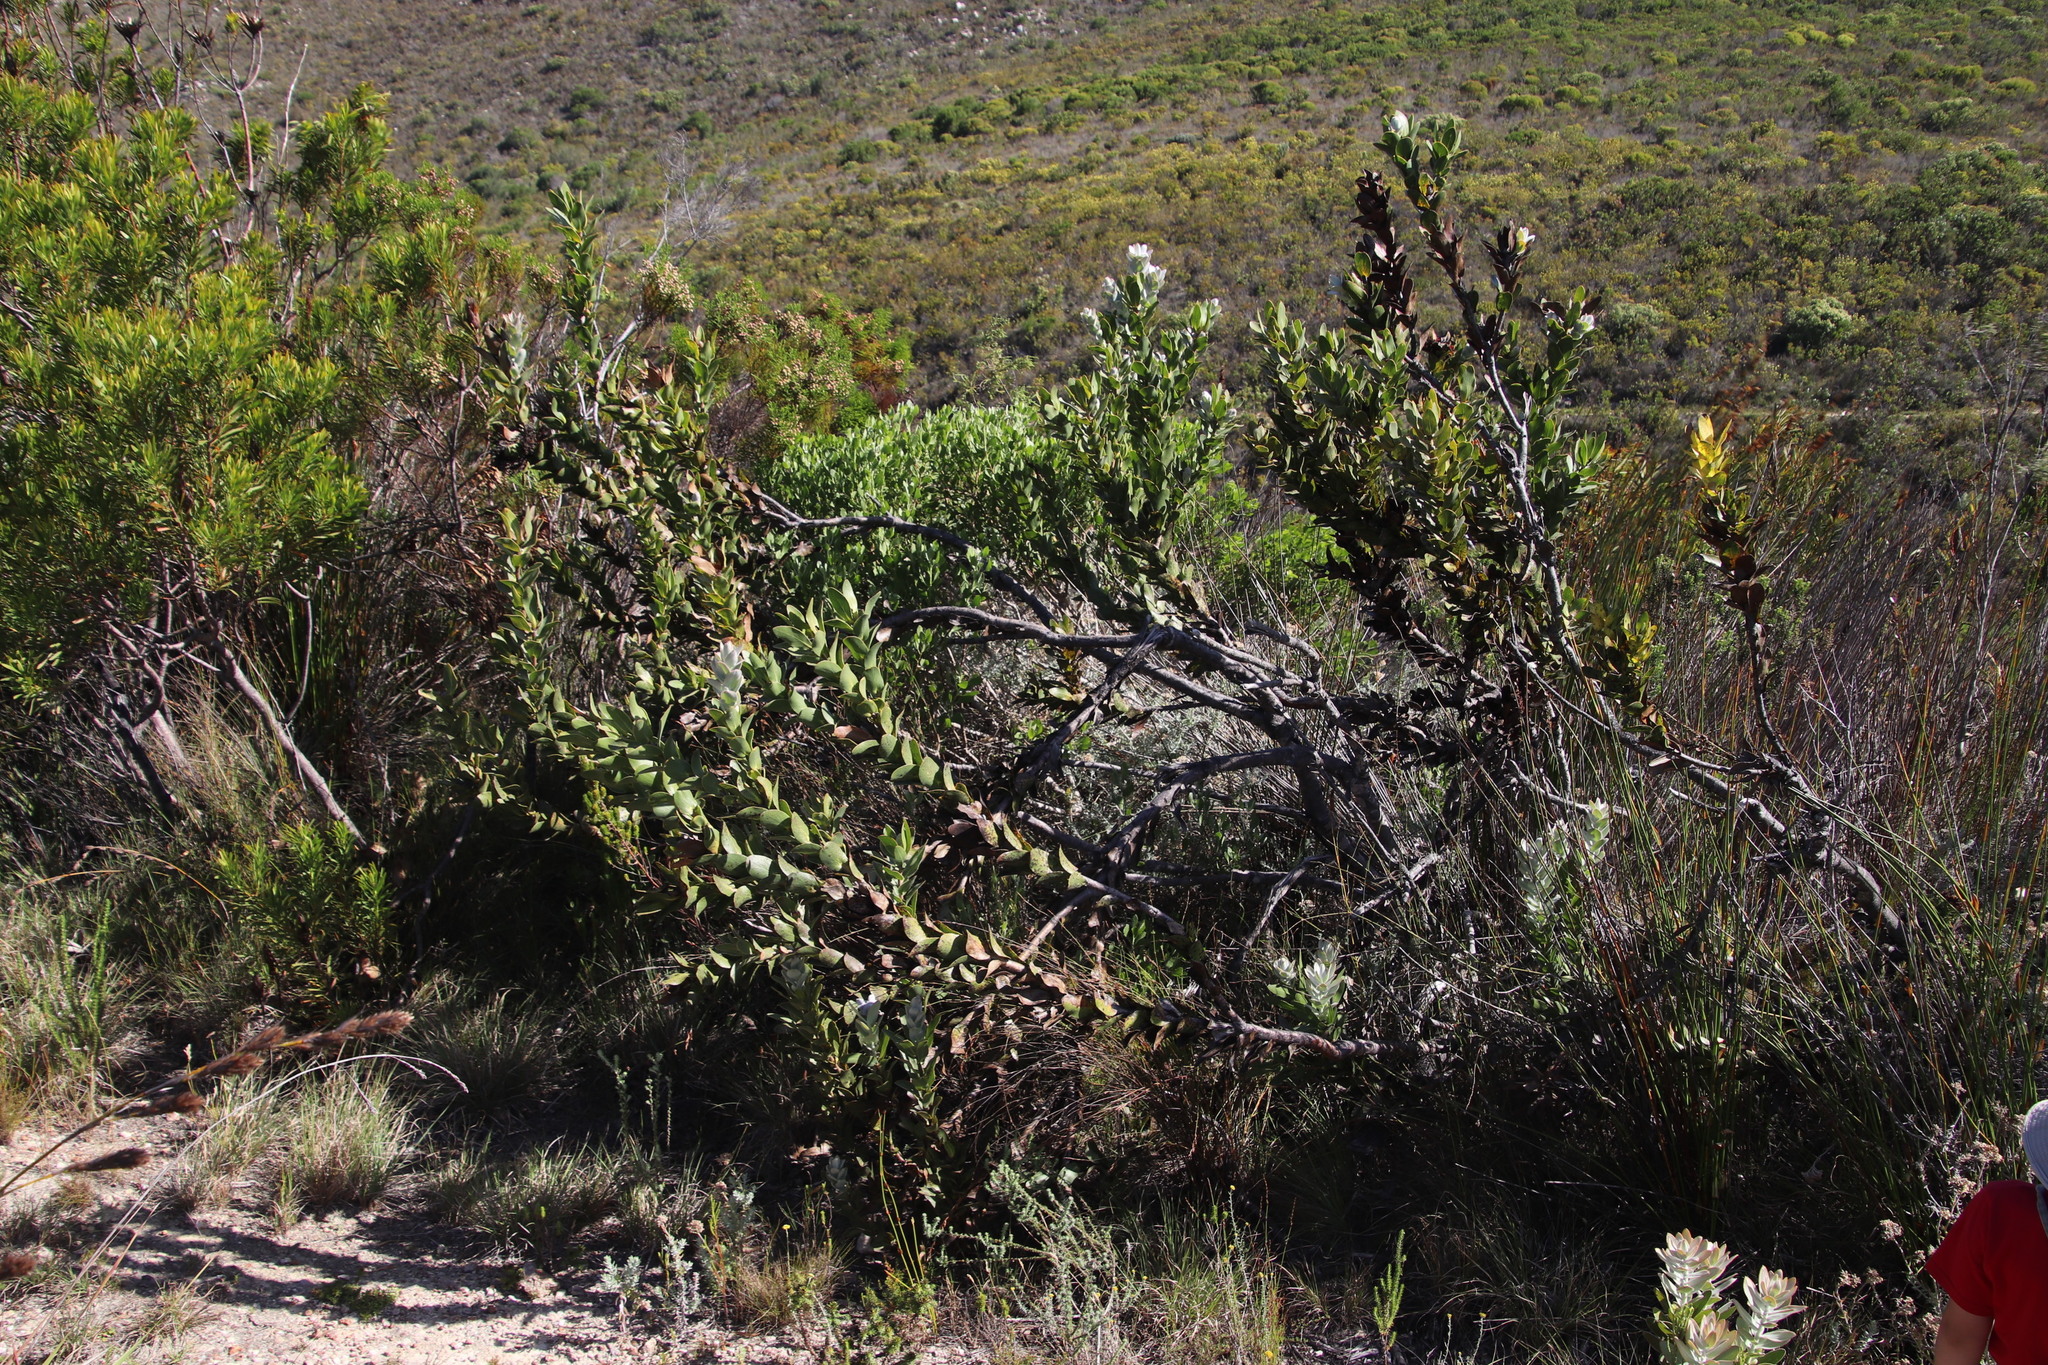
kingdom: Plantae
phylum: Tracheophyta
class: Magnoliopsida
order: Proteales
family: Proteaceae
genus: Protea
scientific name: Protea compacta
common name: Bot river protea
